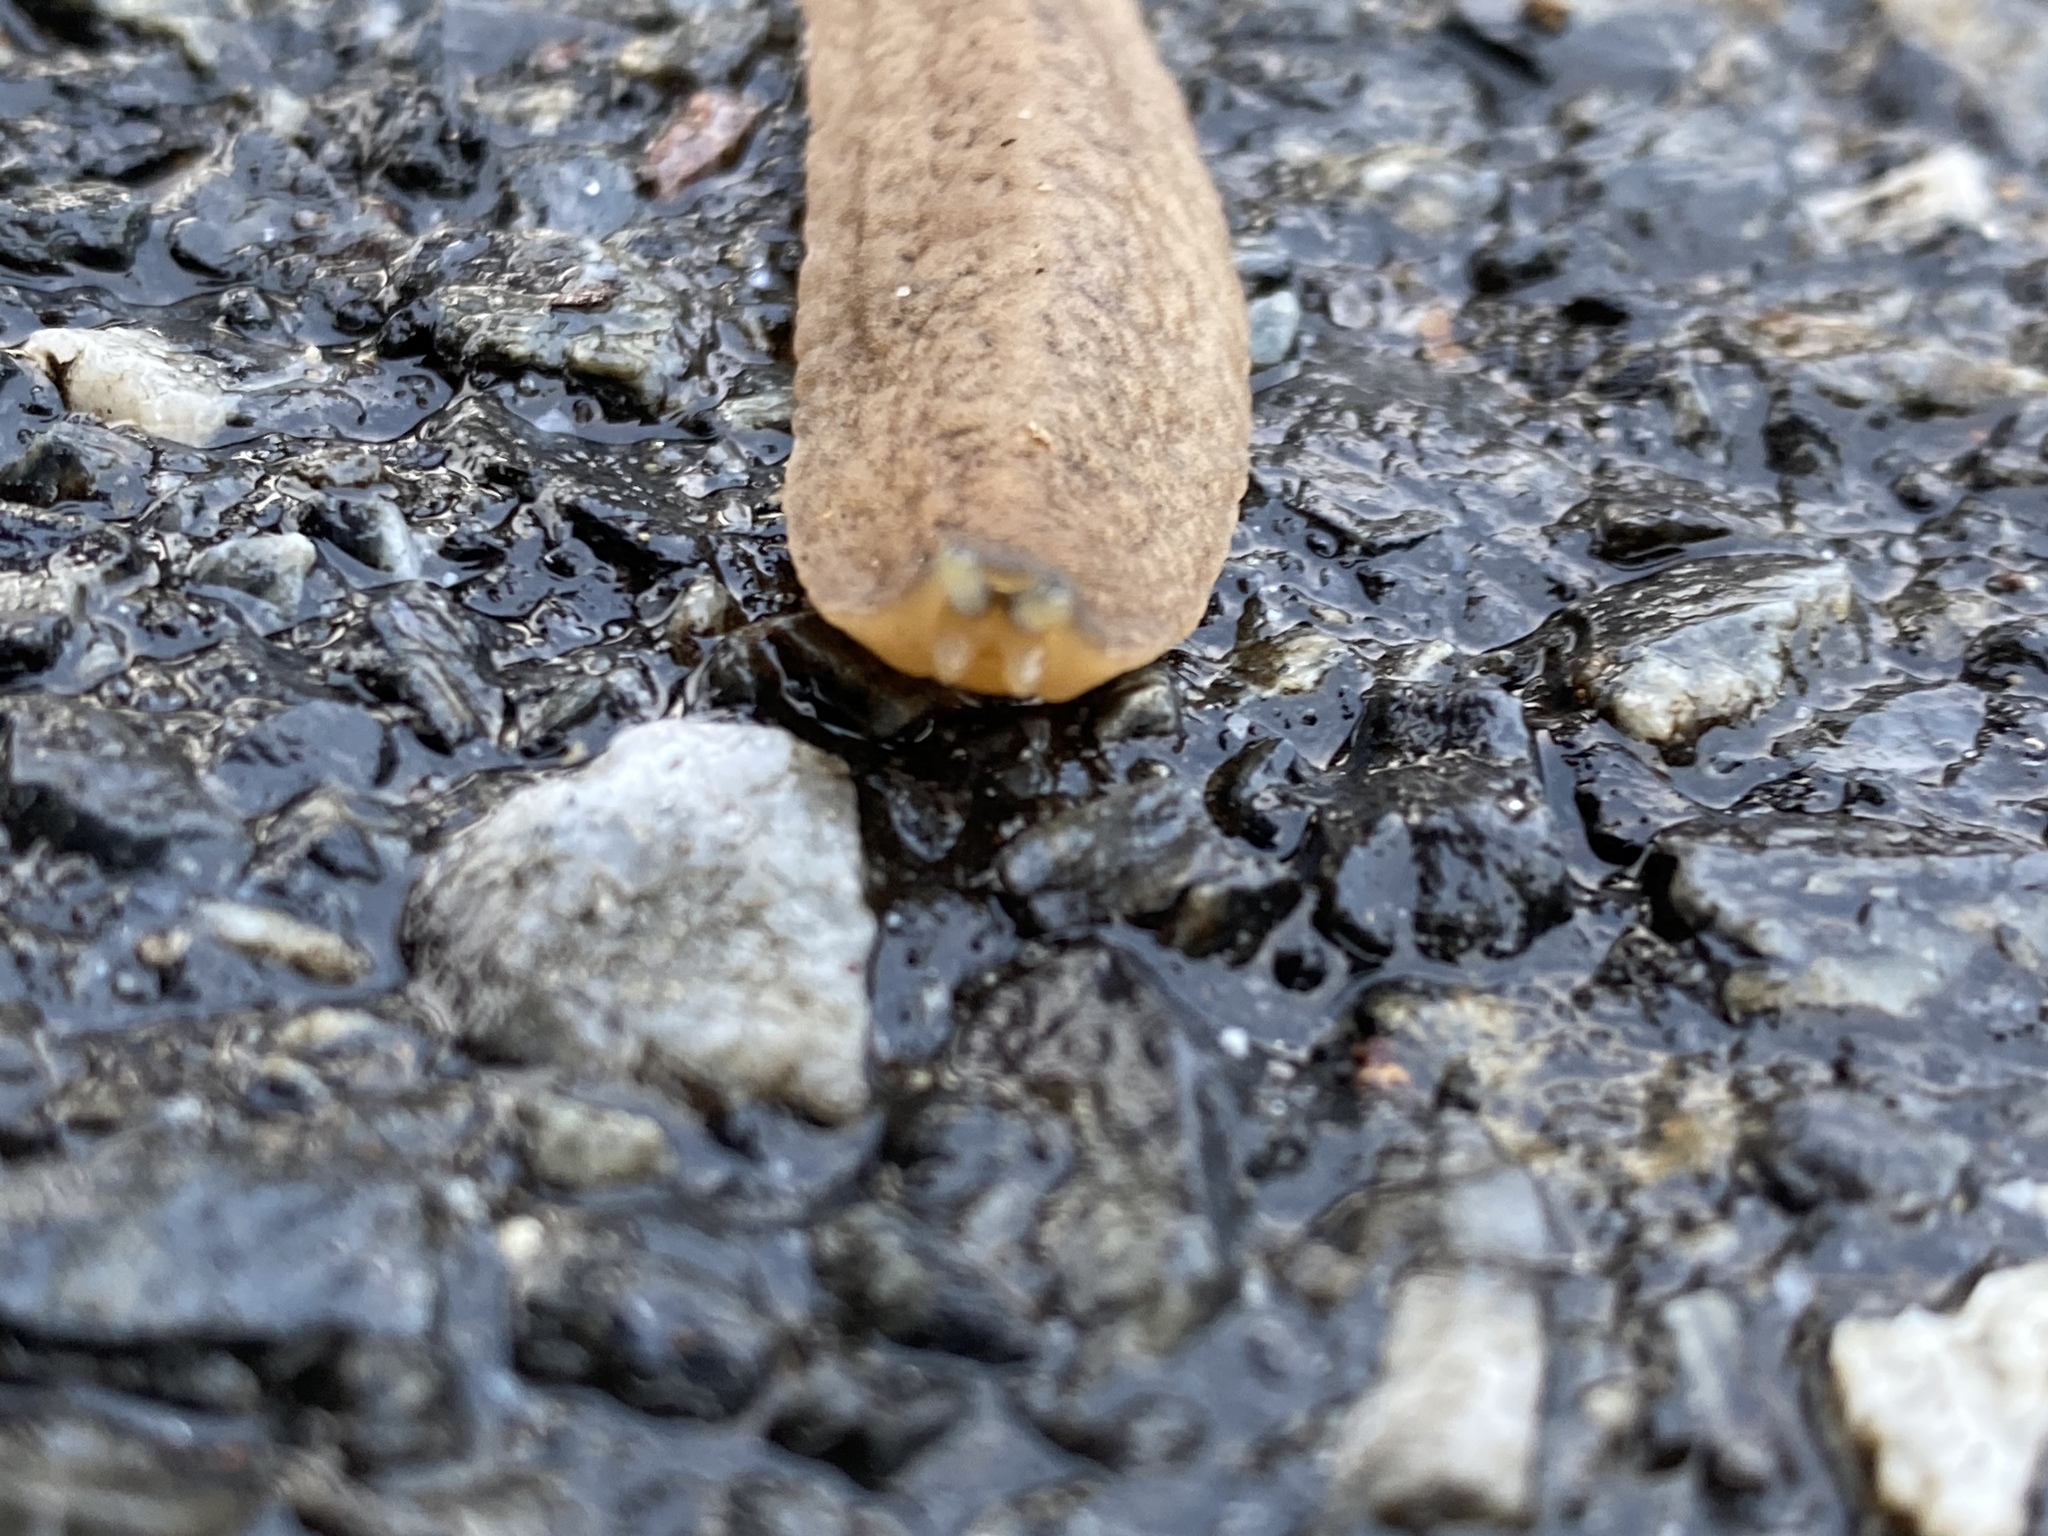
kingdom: Animalia
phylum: Mollusca
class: Gastropoda
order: Systellommatophora
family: Veronicellidae
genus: Sarasinula
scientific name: Sarasinula plebeia
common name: Caribbean leatherleaf
